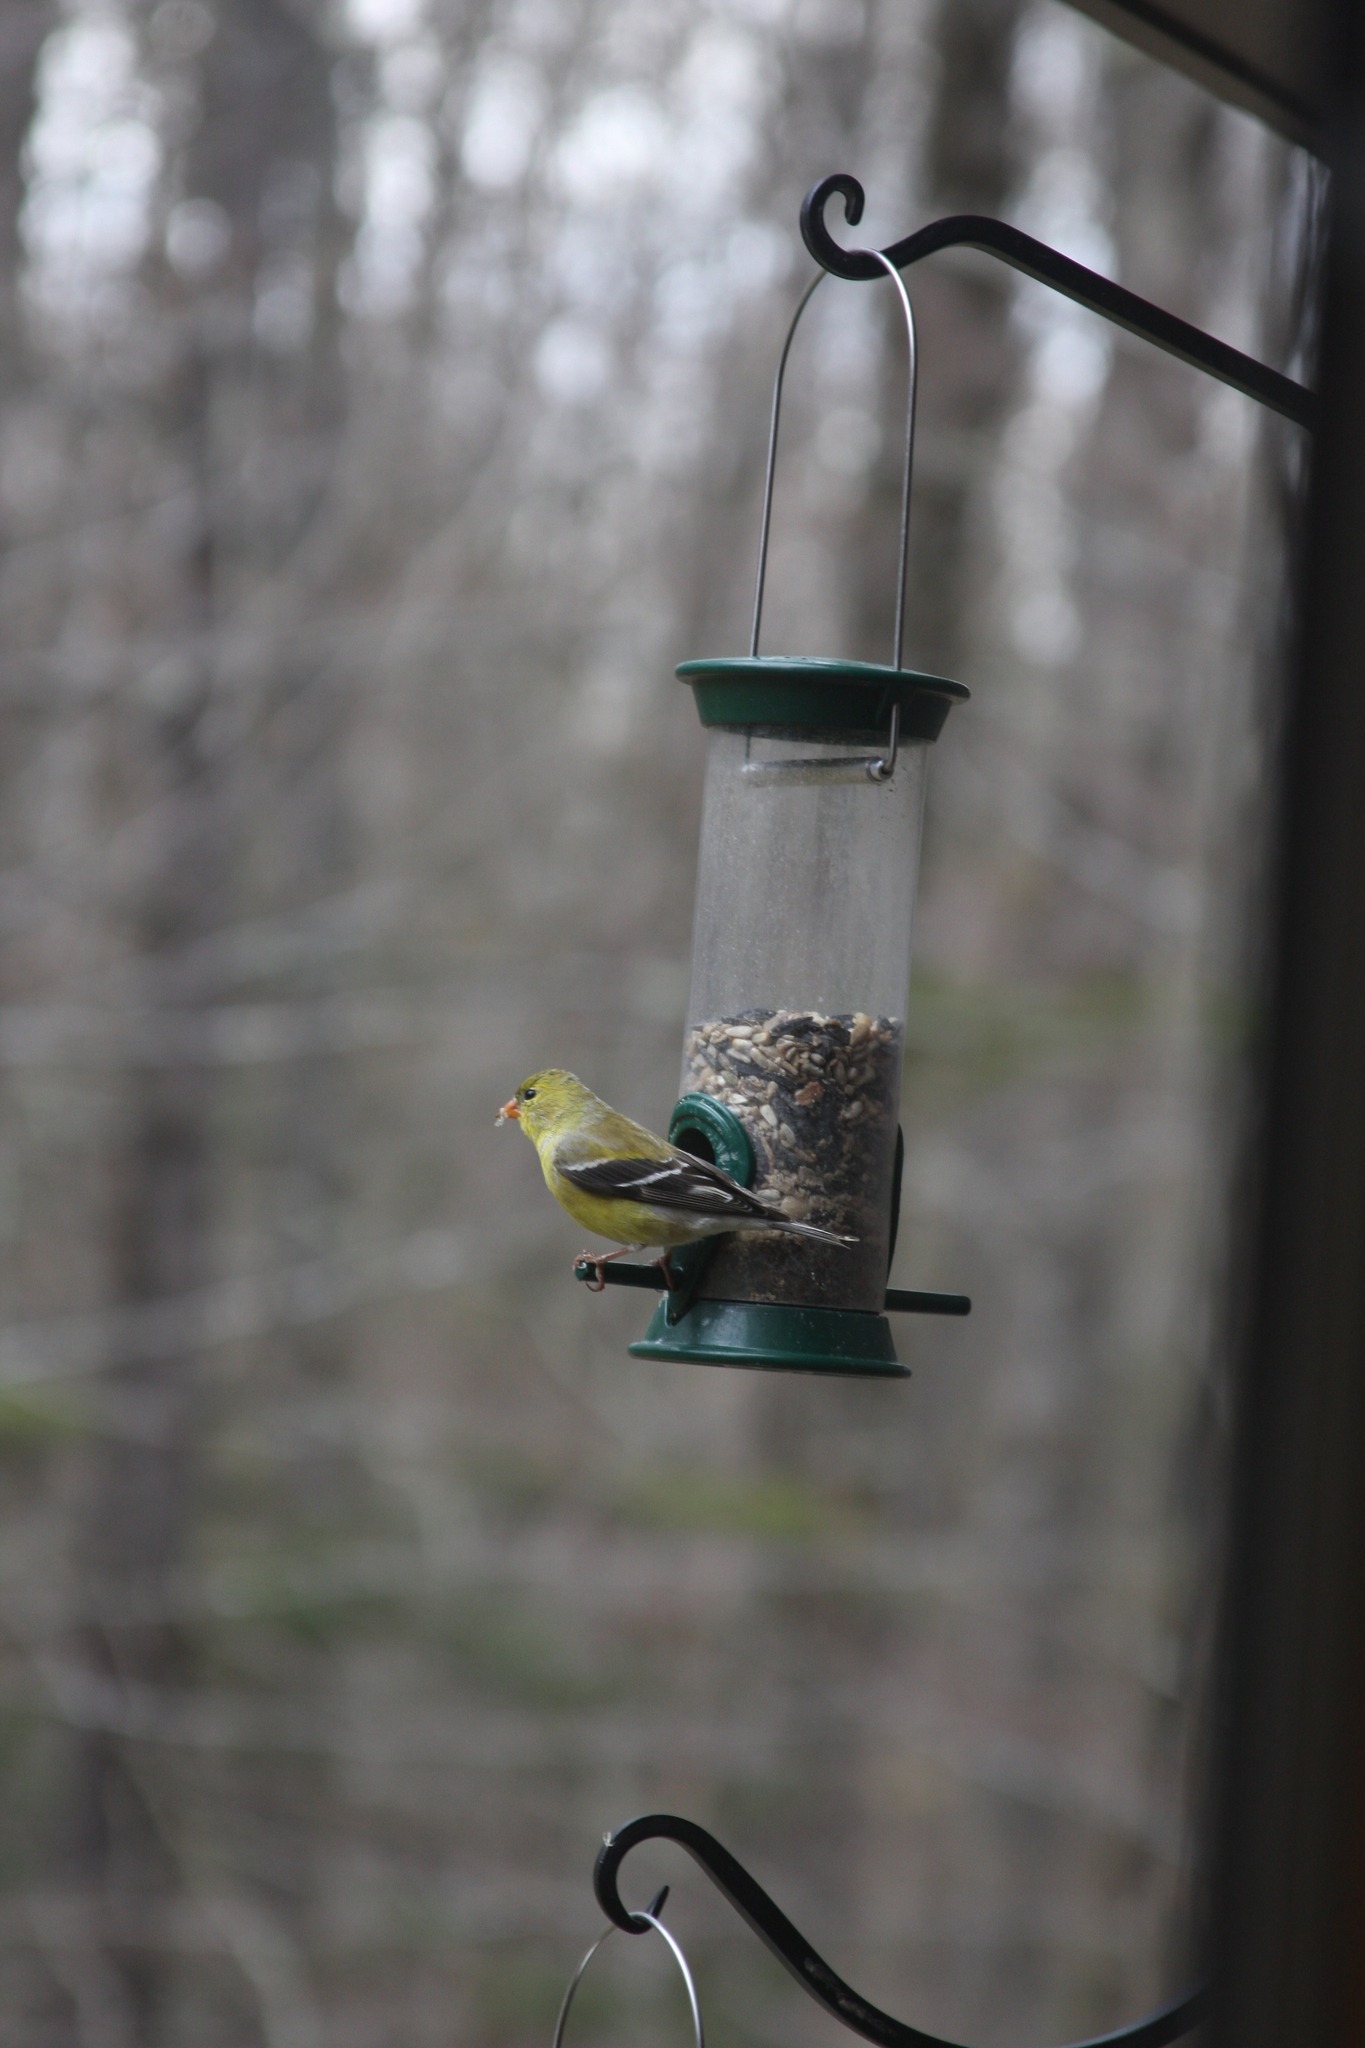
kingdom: Animalia
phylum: Chordata
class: Aves
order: Passeriformes
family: Fringillidae
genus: Spinus
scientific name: Spinus tristis
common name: American goldfinch
